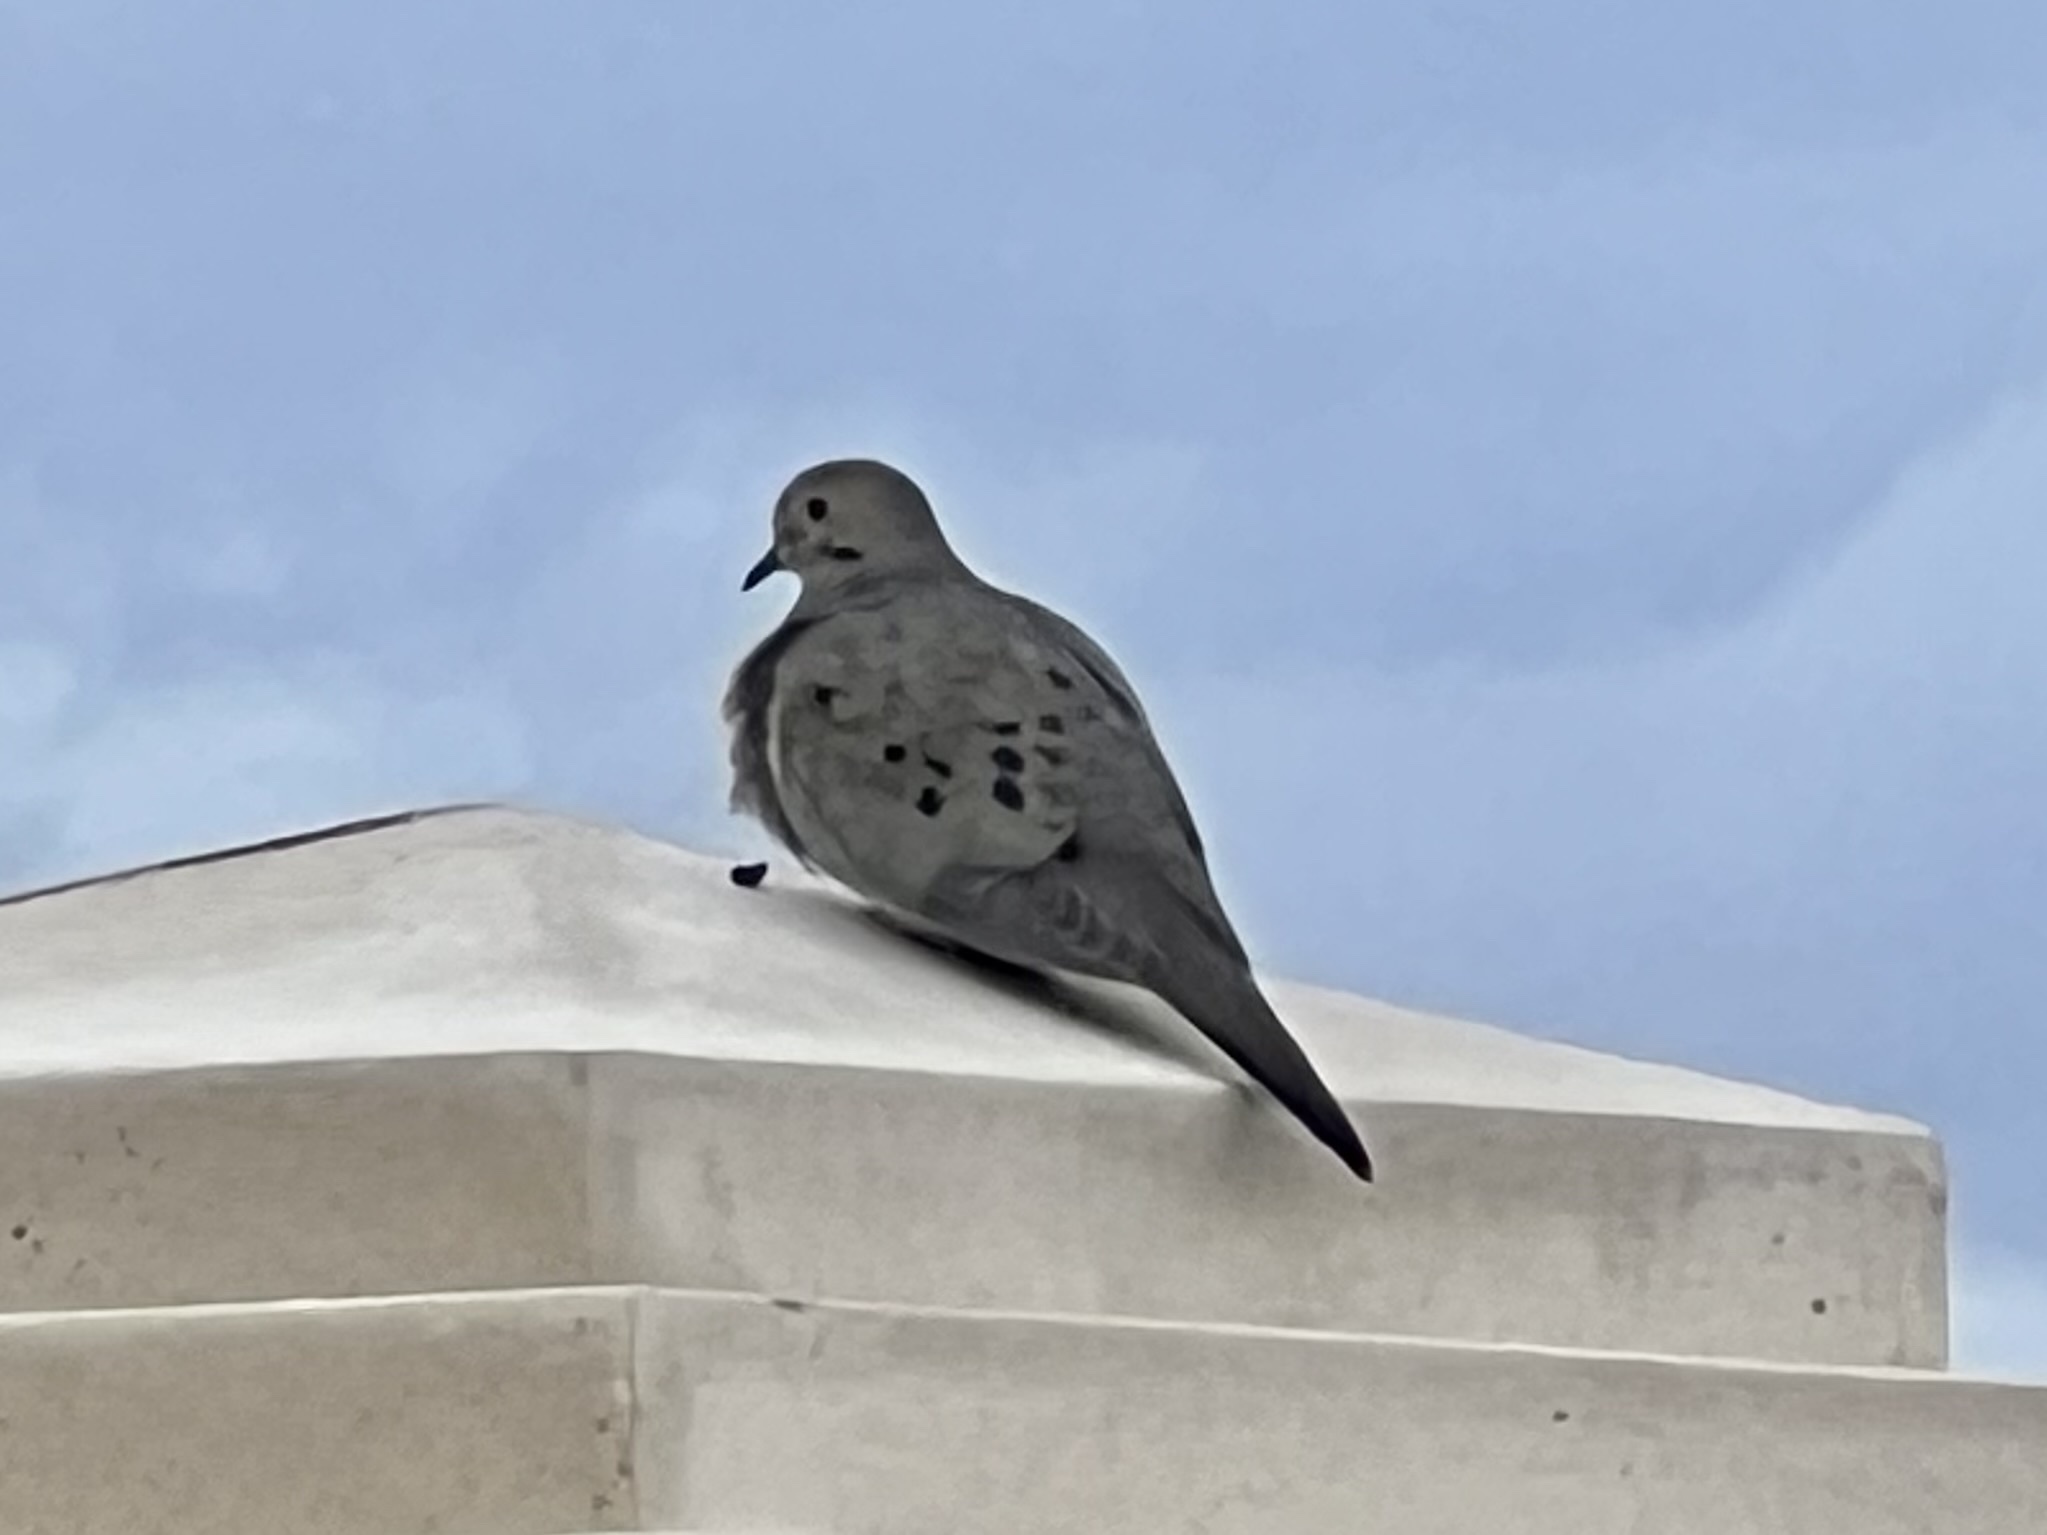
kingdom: Animalia
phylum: Chordata
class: Aves
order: Columbiformes
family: Columbidae
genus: Zenaida
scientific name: Zenaida macroura
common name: Mourning dove
